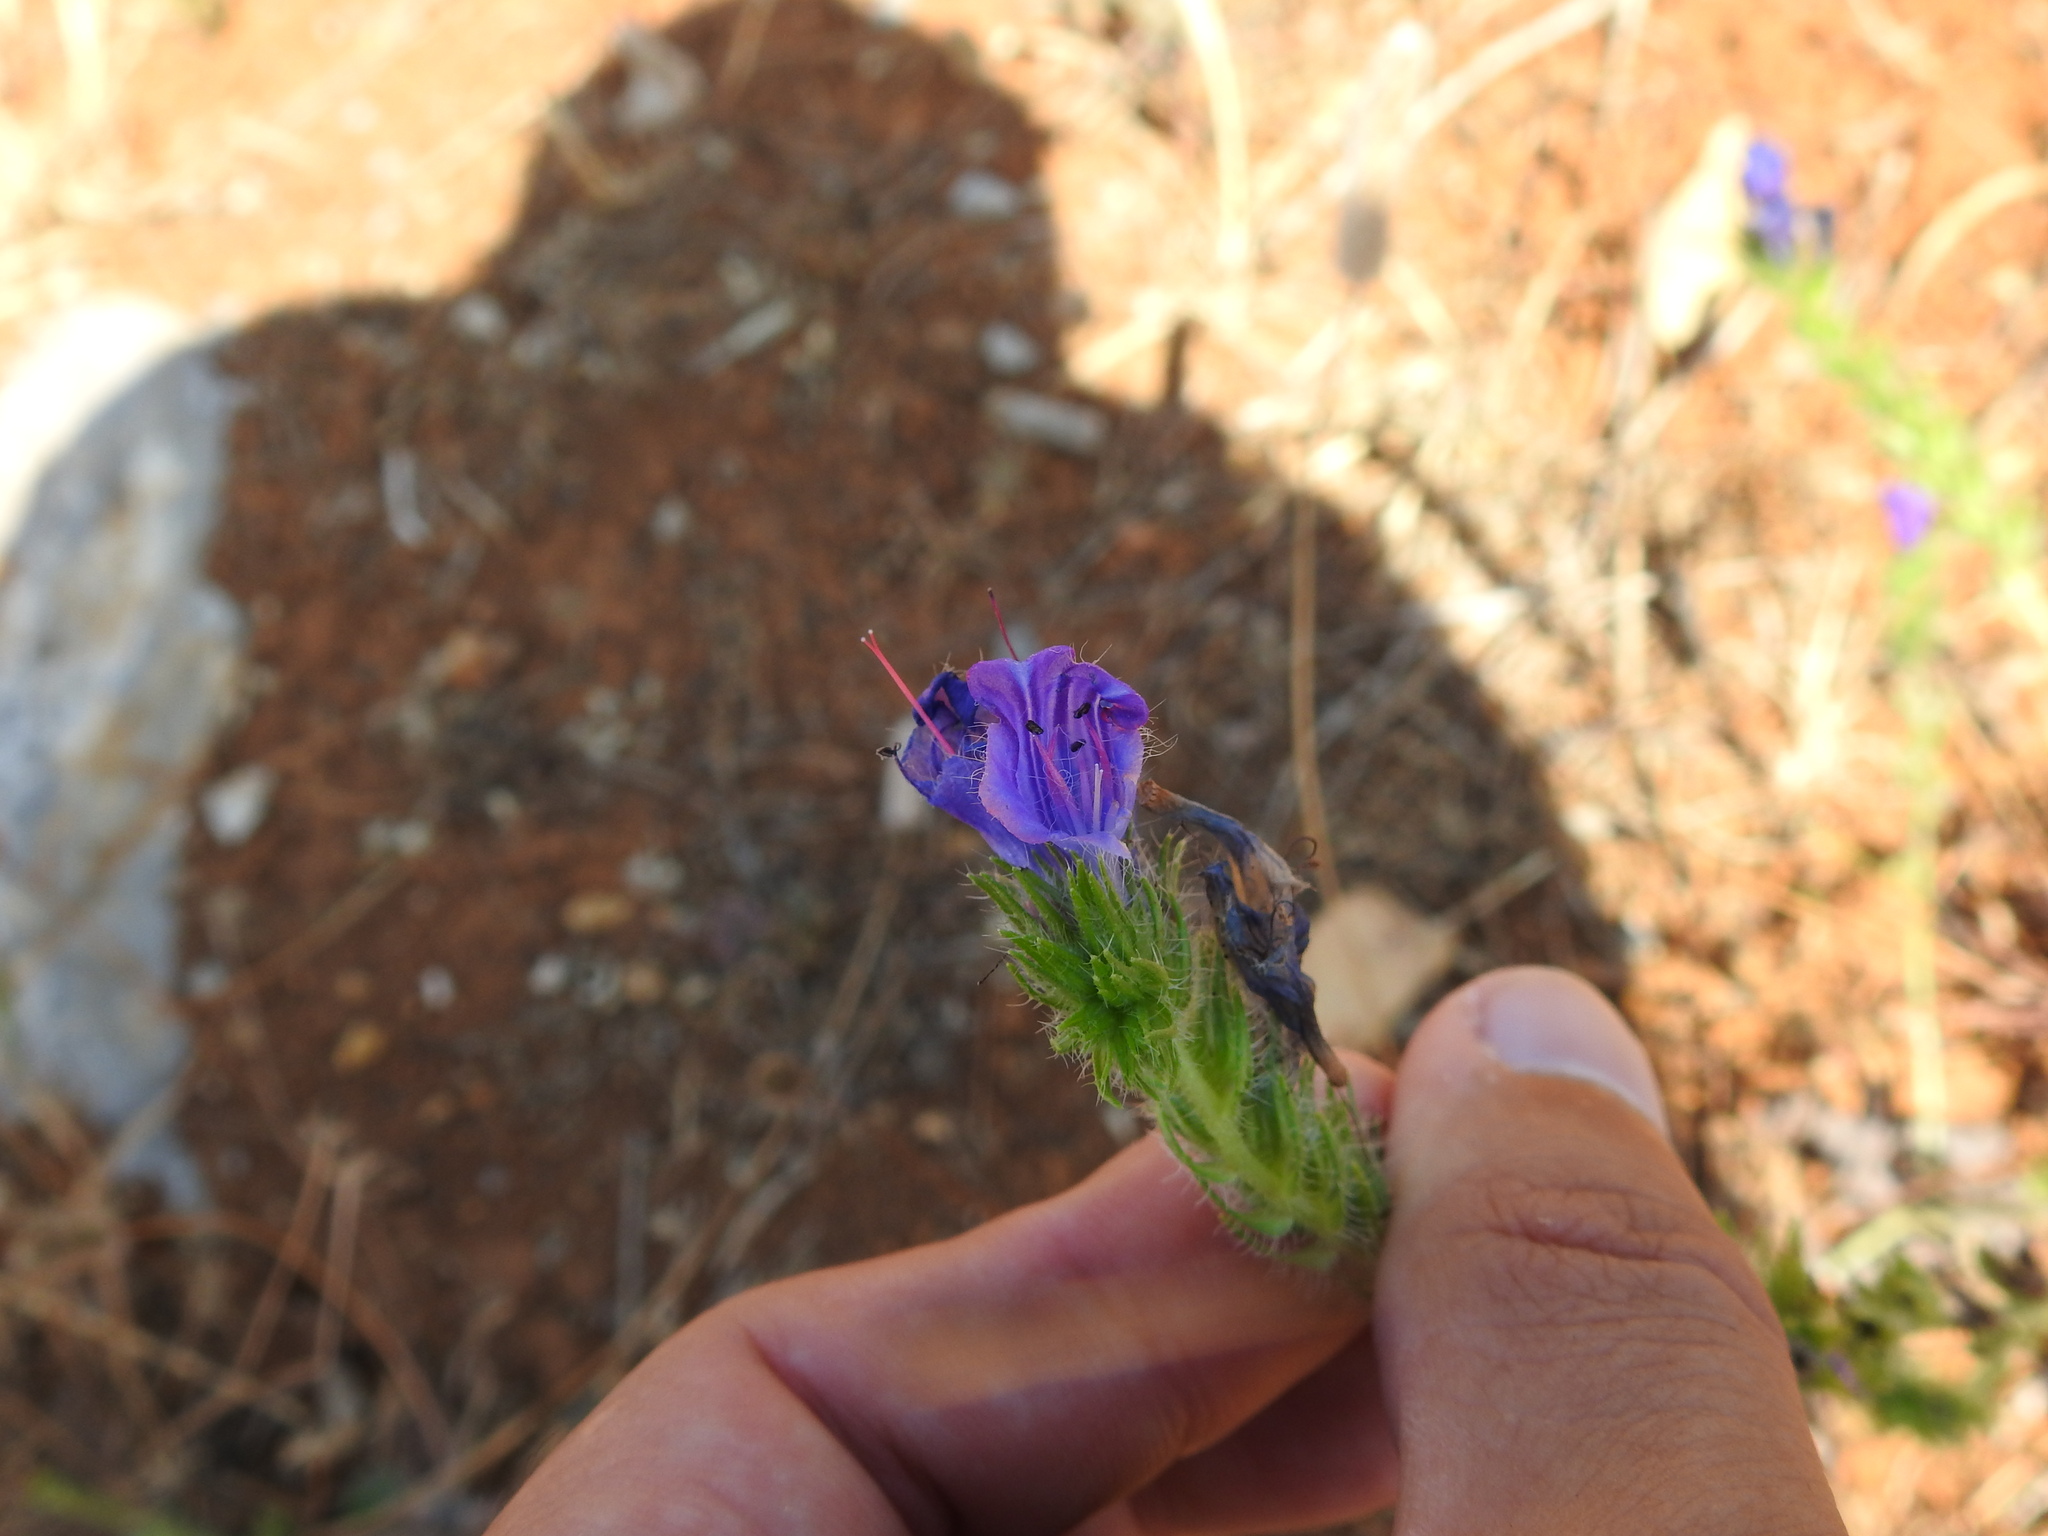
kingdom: Plantae
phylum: Tracheophyta
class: Magnoliopsida
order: Boraginales
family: Boraginaceae
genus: Echium
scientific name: Echium plantagineum
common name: Purple viper's-bugloss
